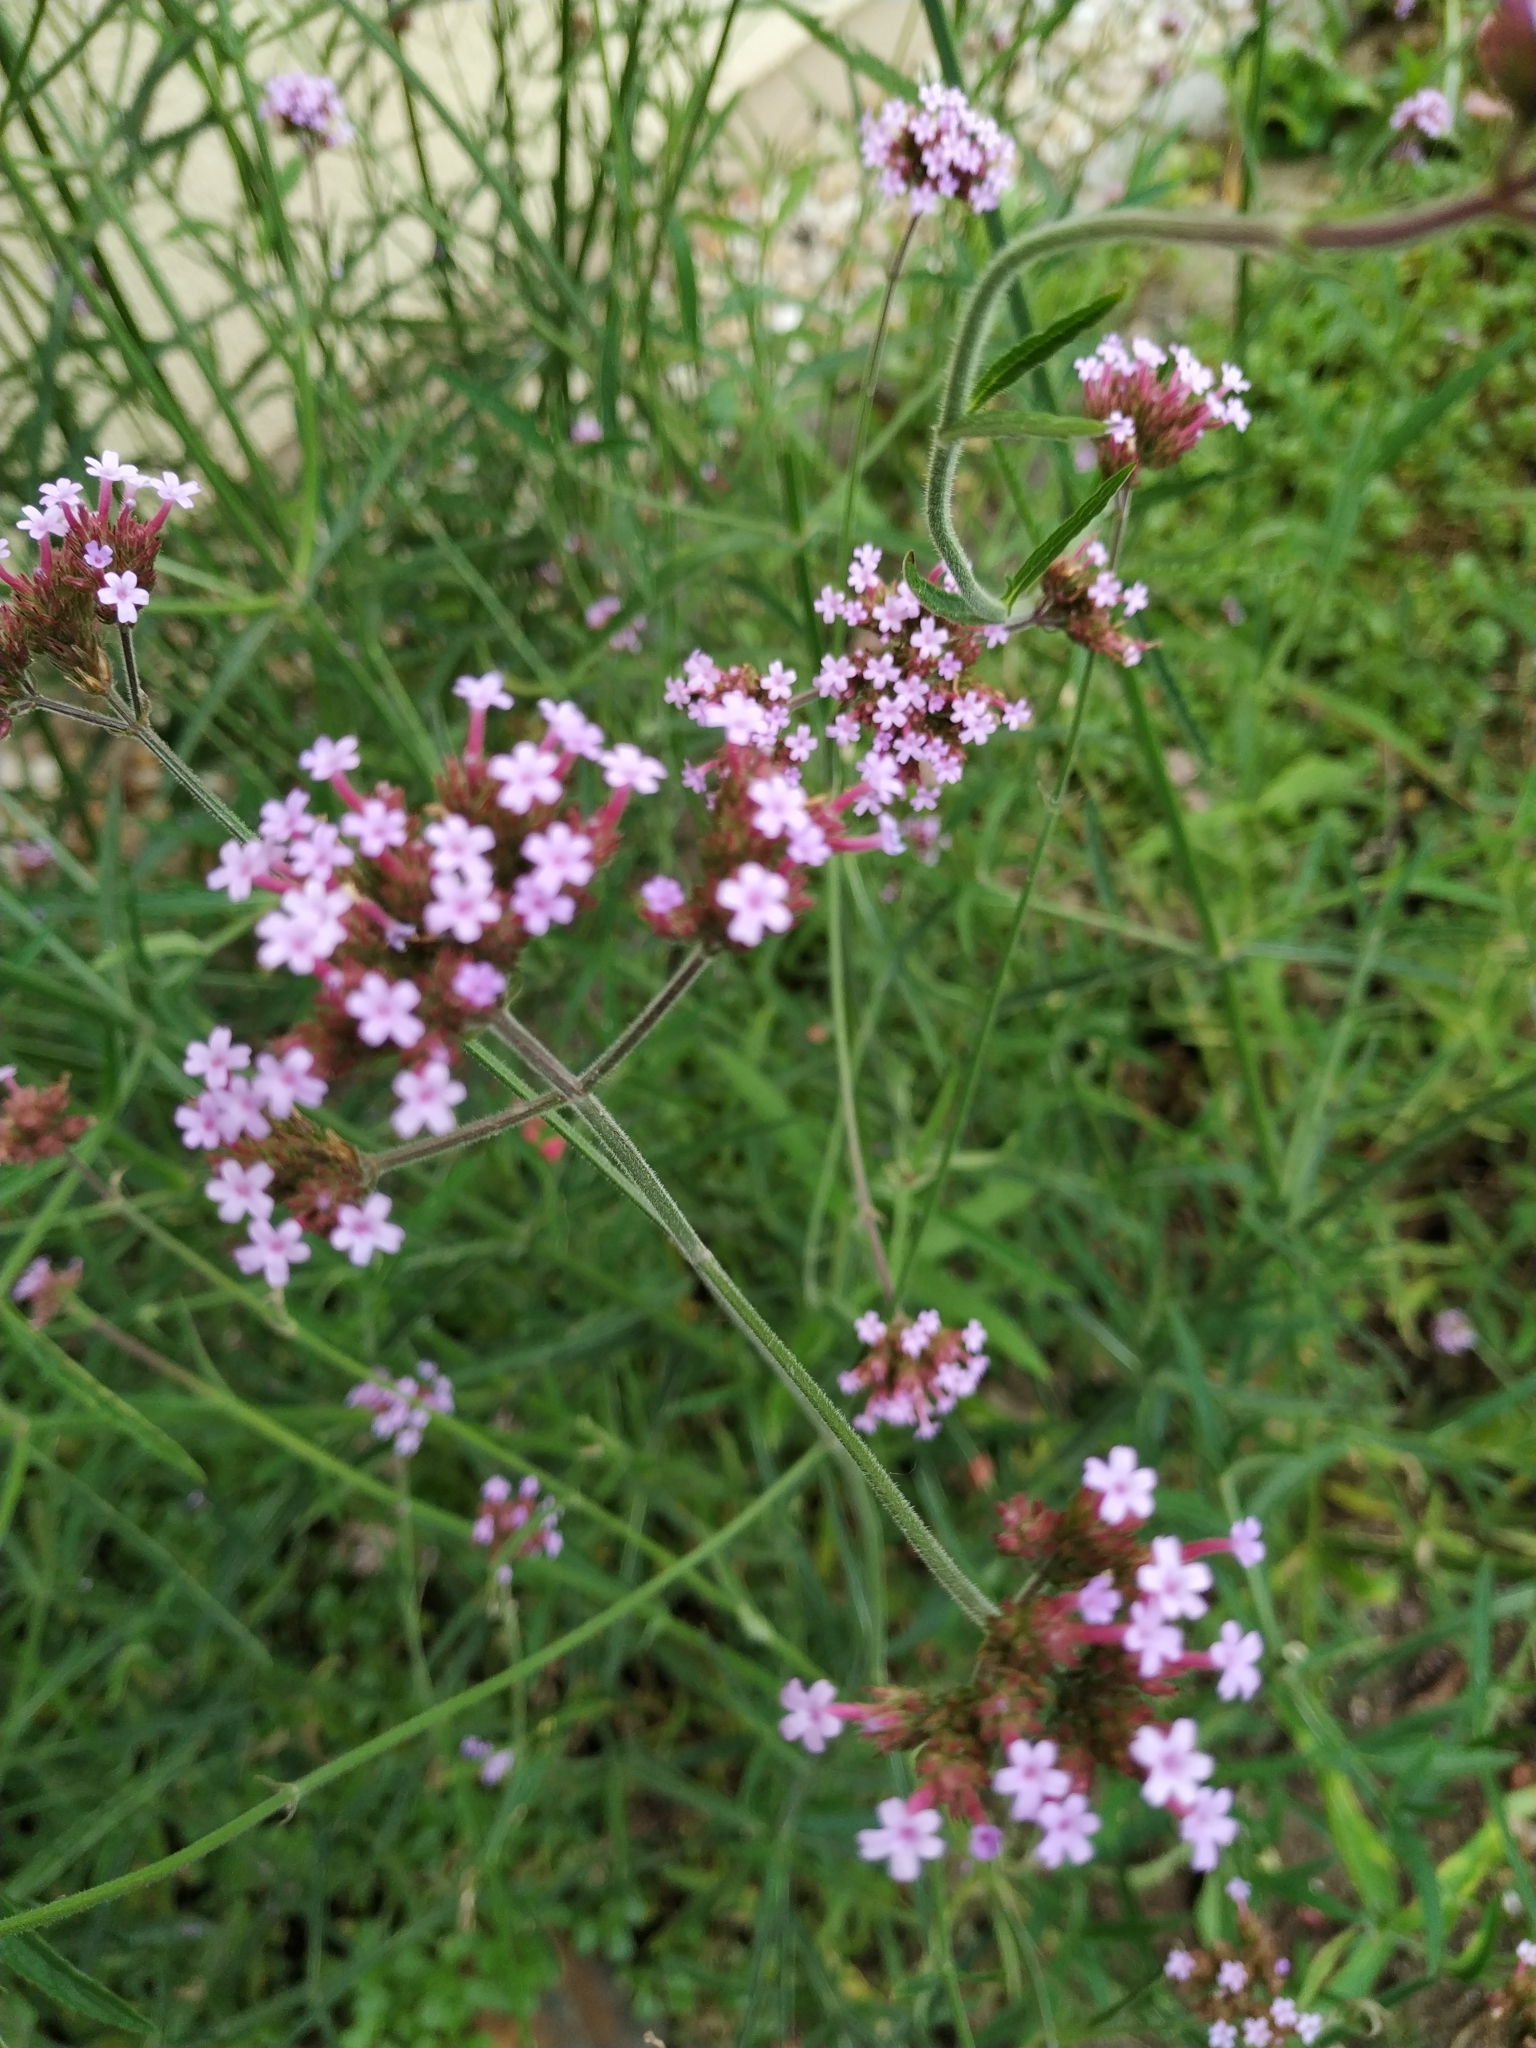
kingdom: Plantae
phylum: Tracheophyta
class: Magnoliopsida
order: Lamiales
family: Verbenaceae
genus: Verbena
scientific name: Verbena bonariensis
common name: Purpletop vervain
